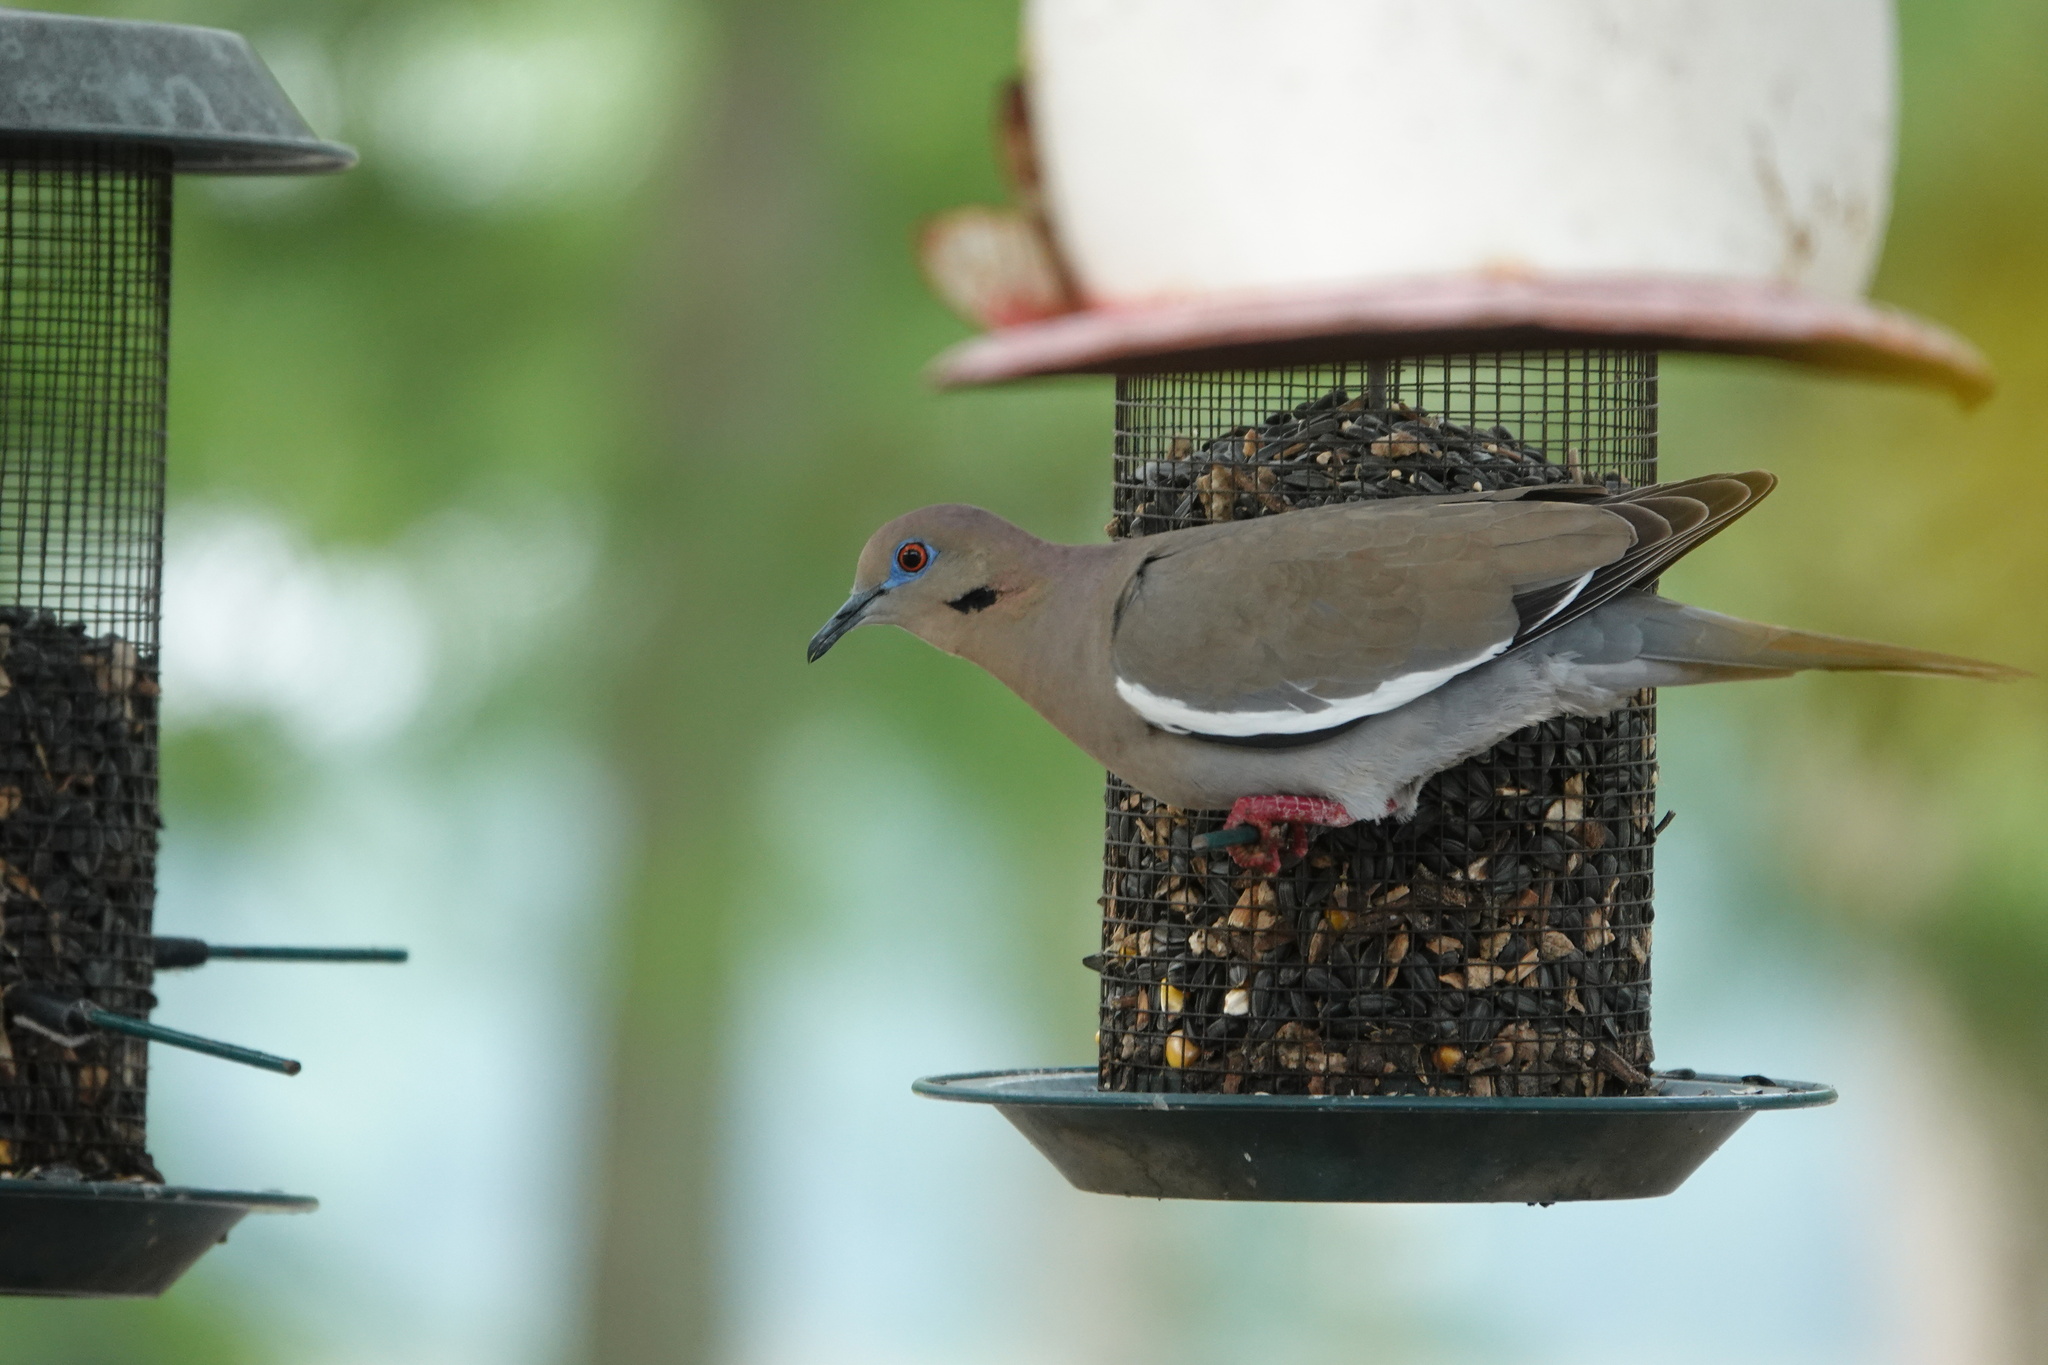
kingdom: Animalia
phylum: Chordata
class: Aves
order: Columbiformes
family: Columbidae
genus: Zenaida
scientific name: Zenaida asiatica
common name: White-winged dove
